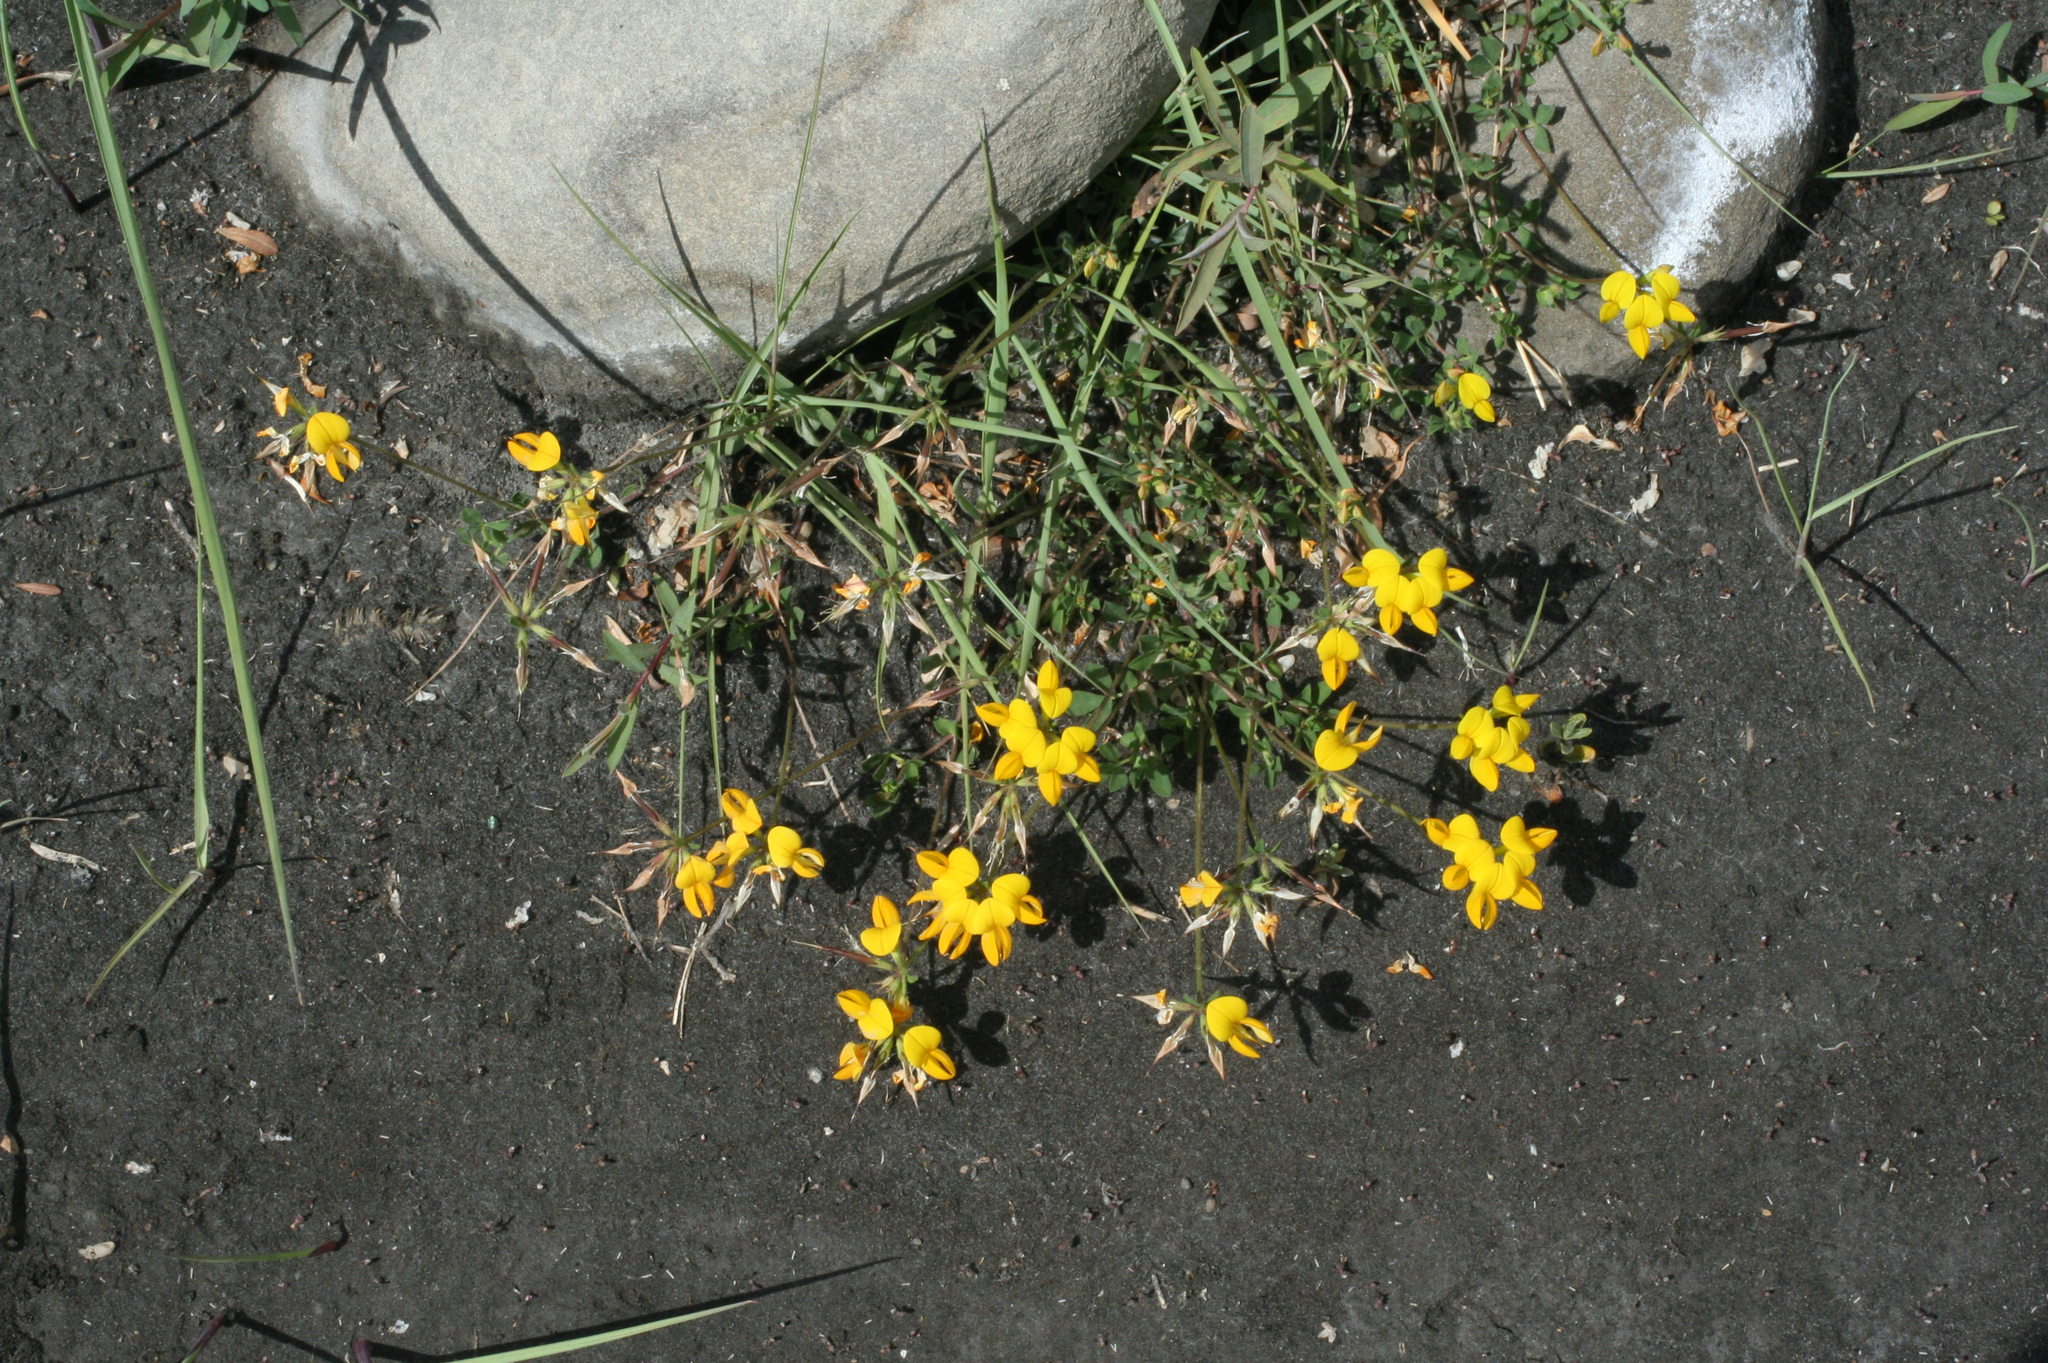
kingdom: Plantae
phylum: Tracheophyta
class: Magnoliopsida
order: Fabales
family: Fabaceae
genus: Lotus
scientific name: Lotus corniculatus
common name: Common bird's-foot-trefoil
